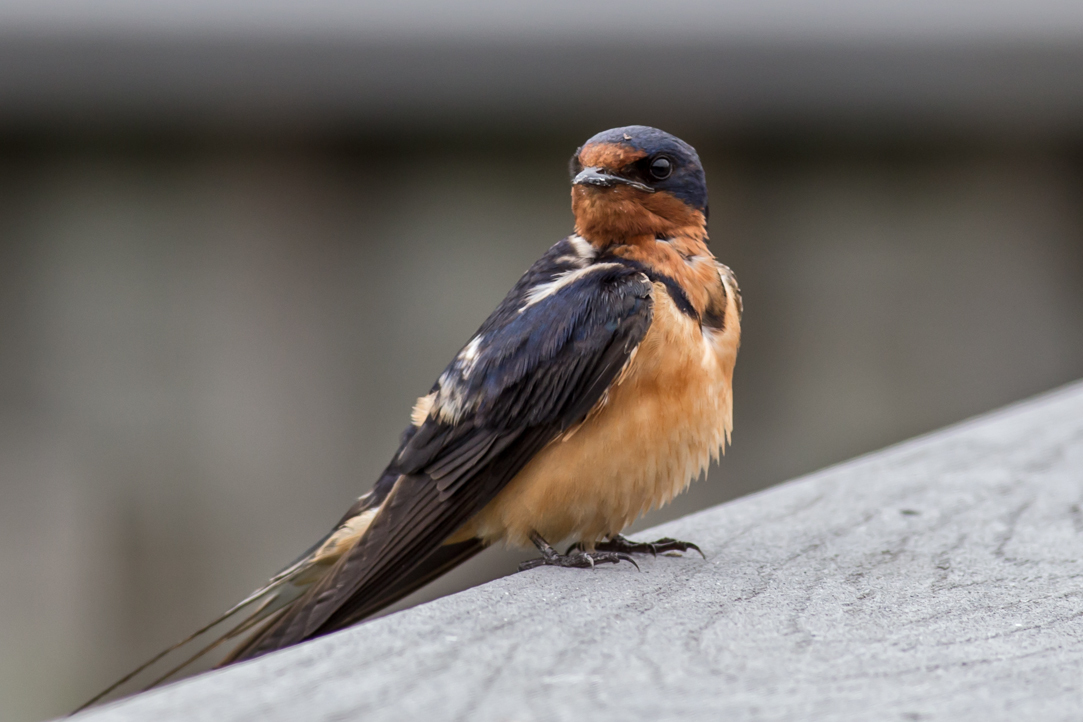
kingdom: Animalia
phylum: Chordata
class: Aves
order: Passeriformes
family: Hirundinidae
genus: Hirundo
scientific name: Hirundo rustica
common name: Barn swallow
